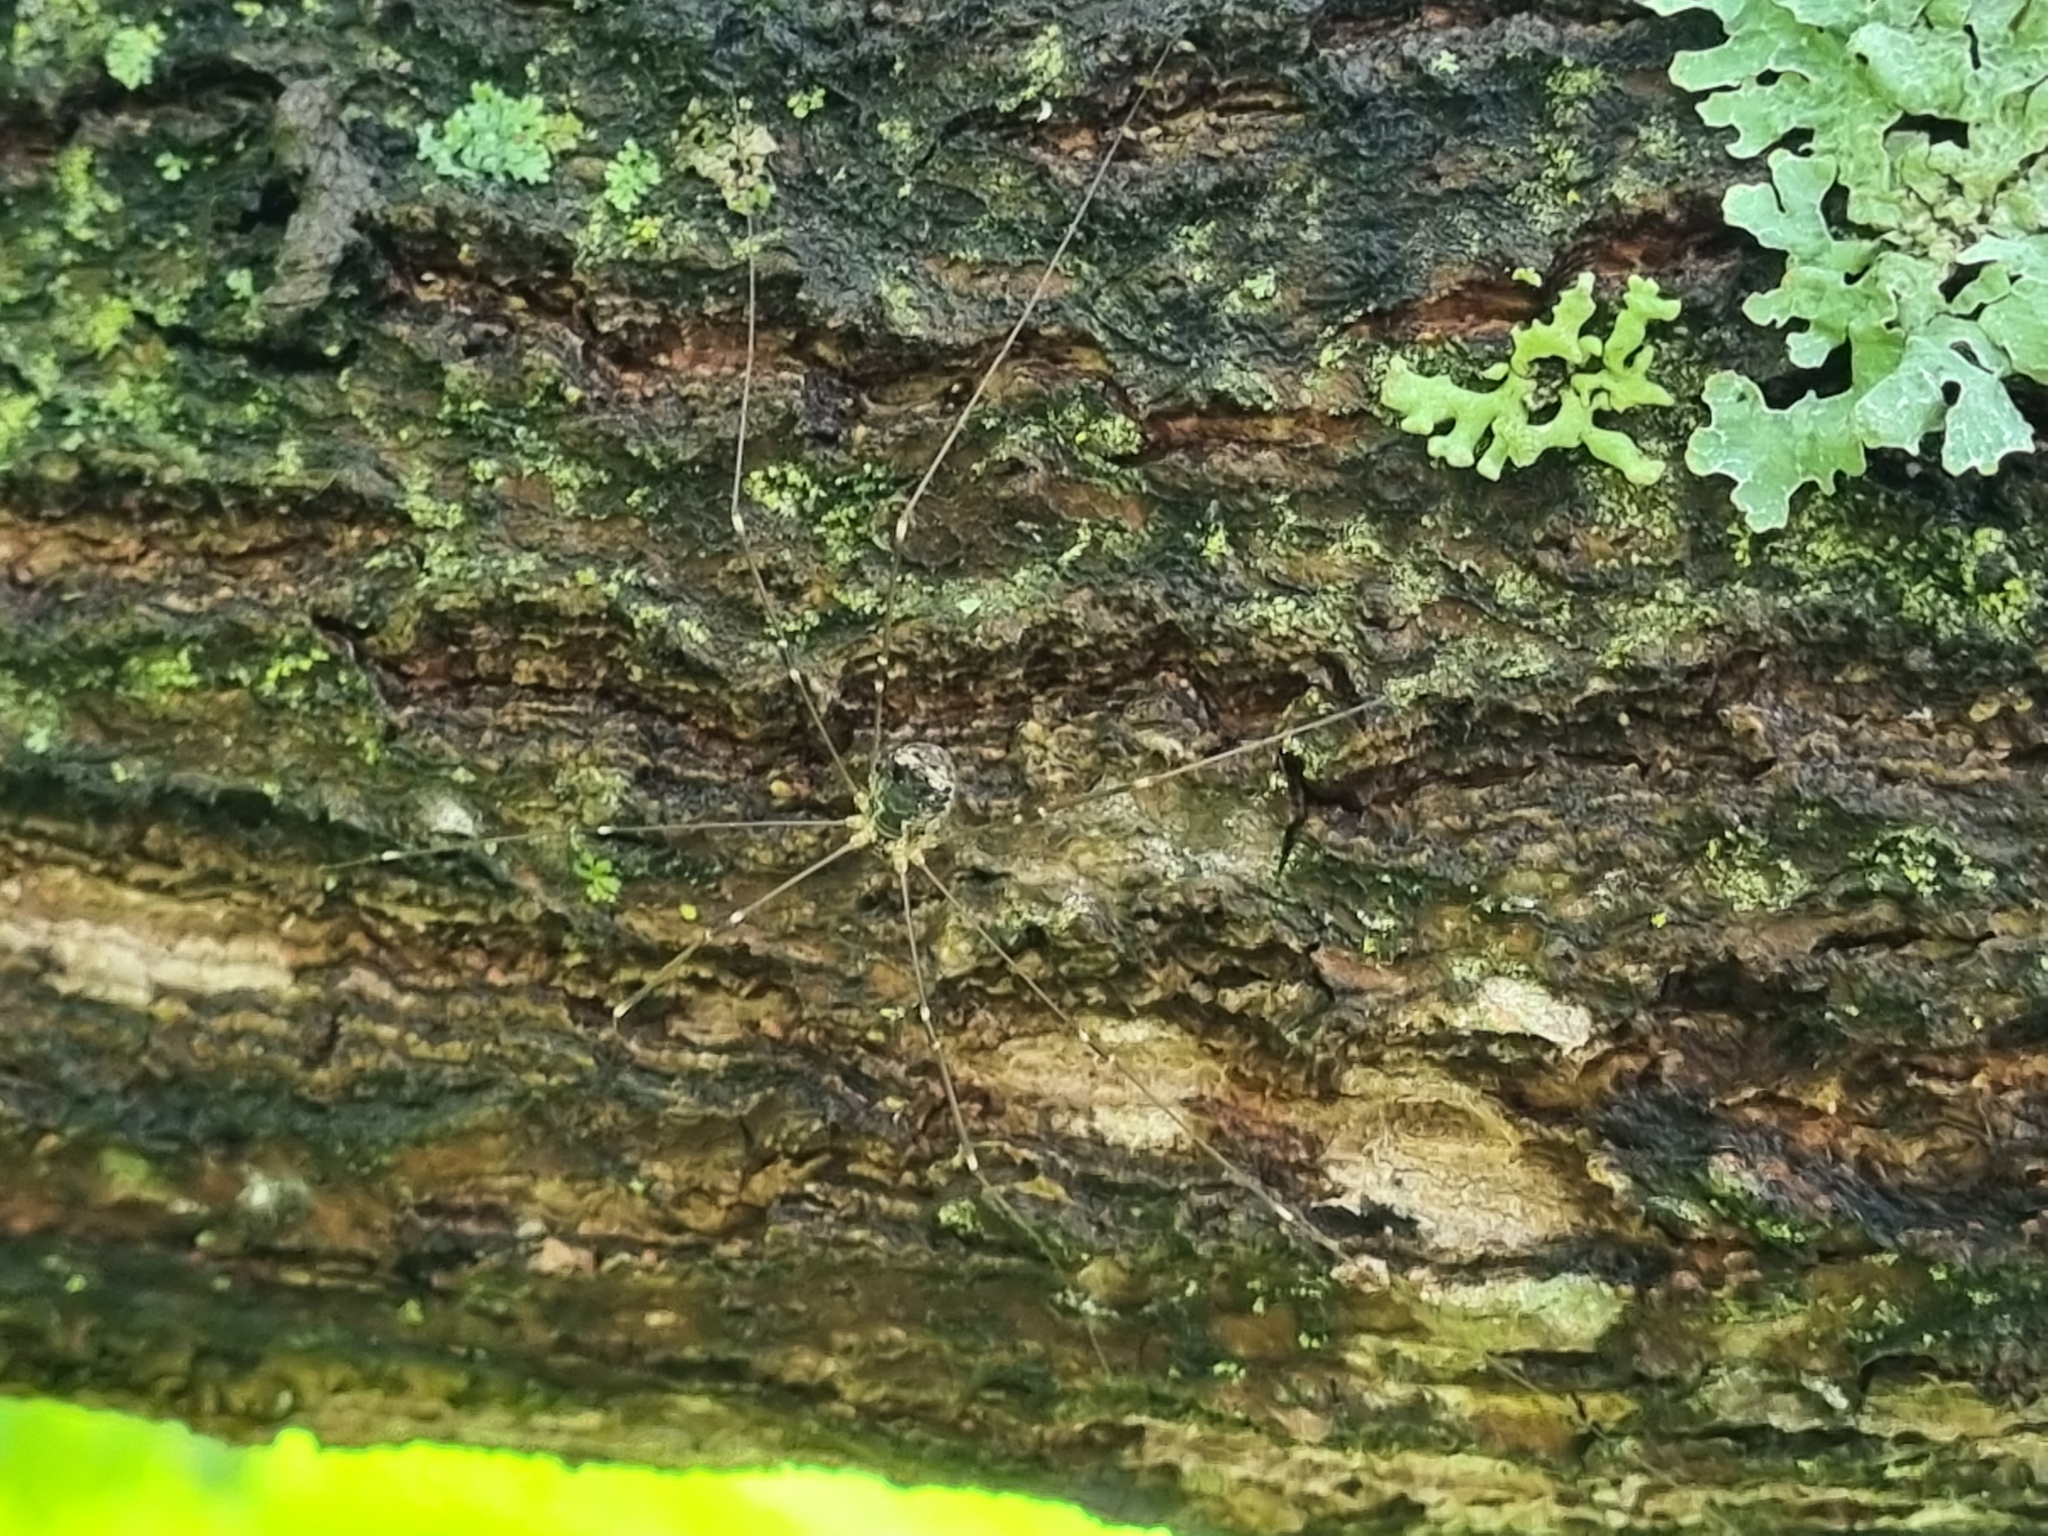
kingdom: Animalia
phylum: Arthropoda
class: Arachnida
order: Opiliones
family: Sclerosomatidae
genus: Leiobunum
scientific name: Leiobunum gracile
